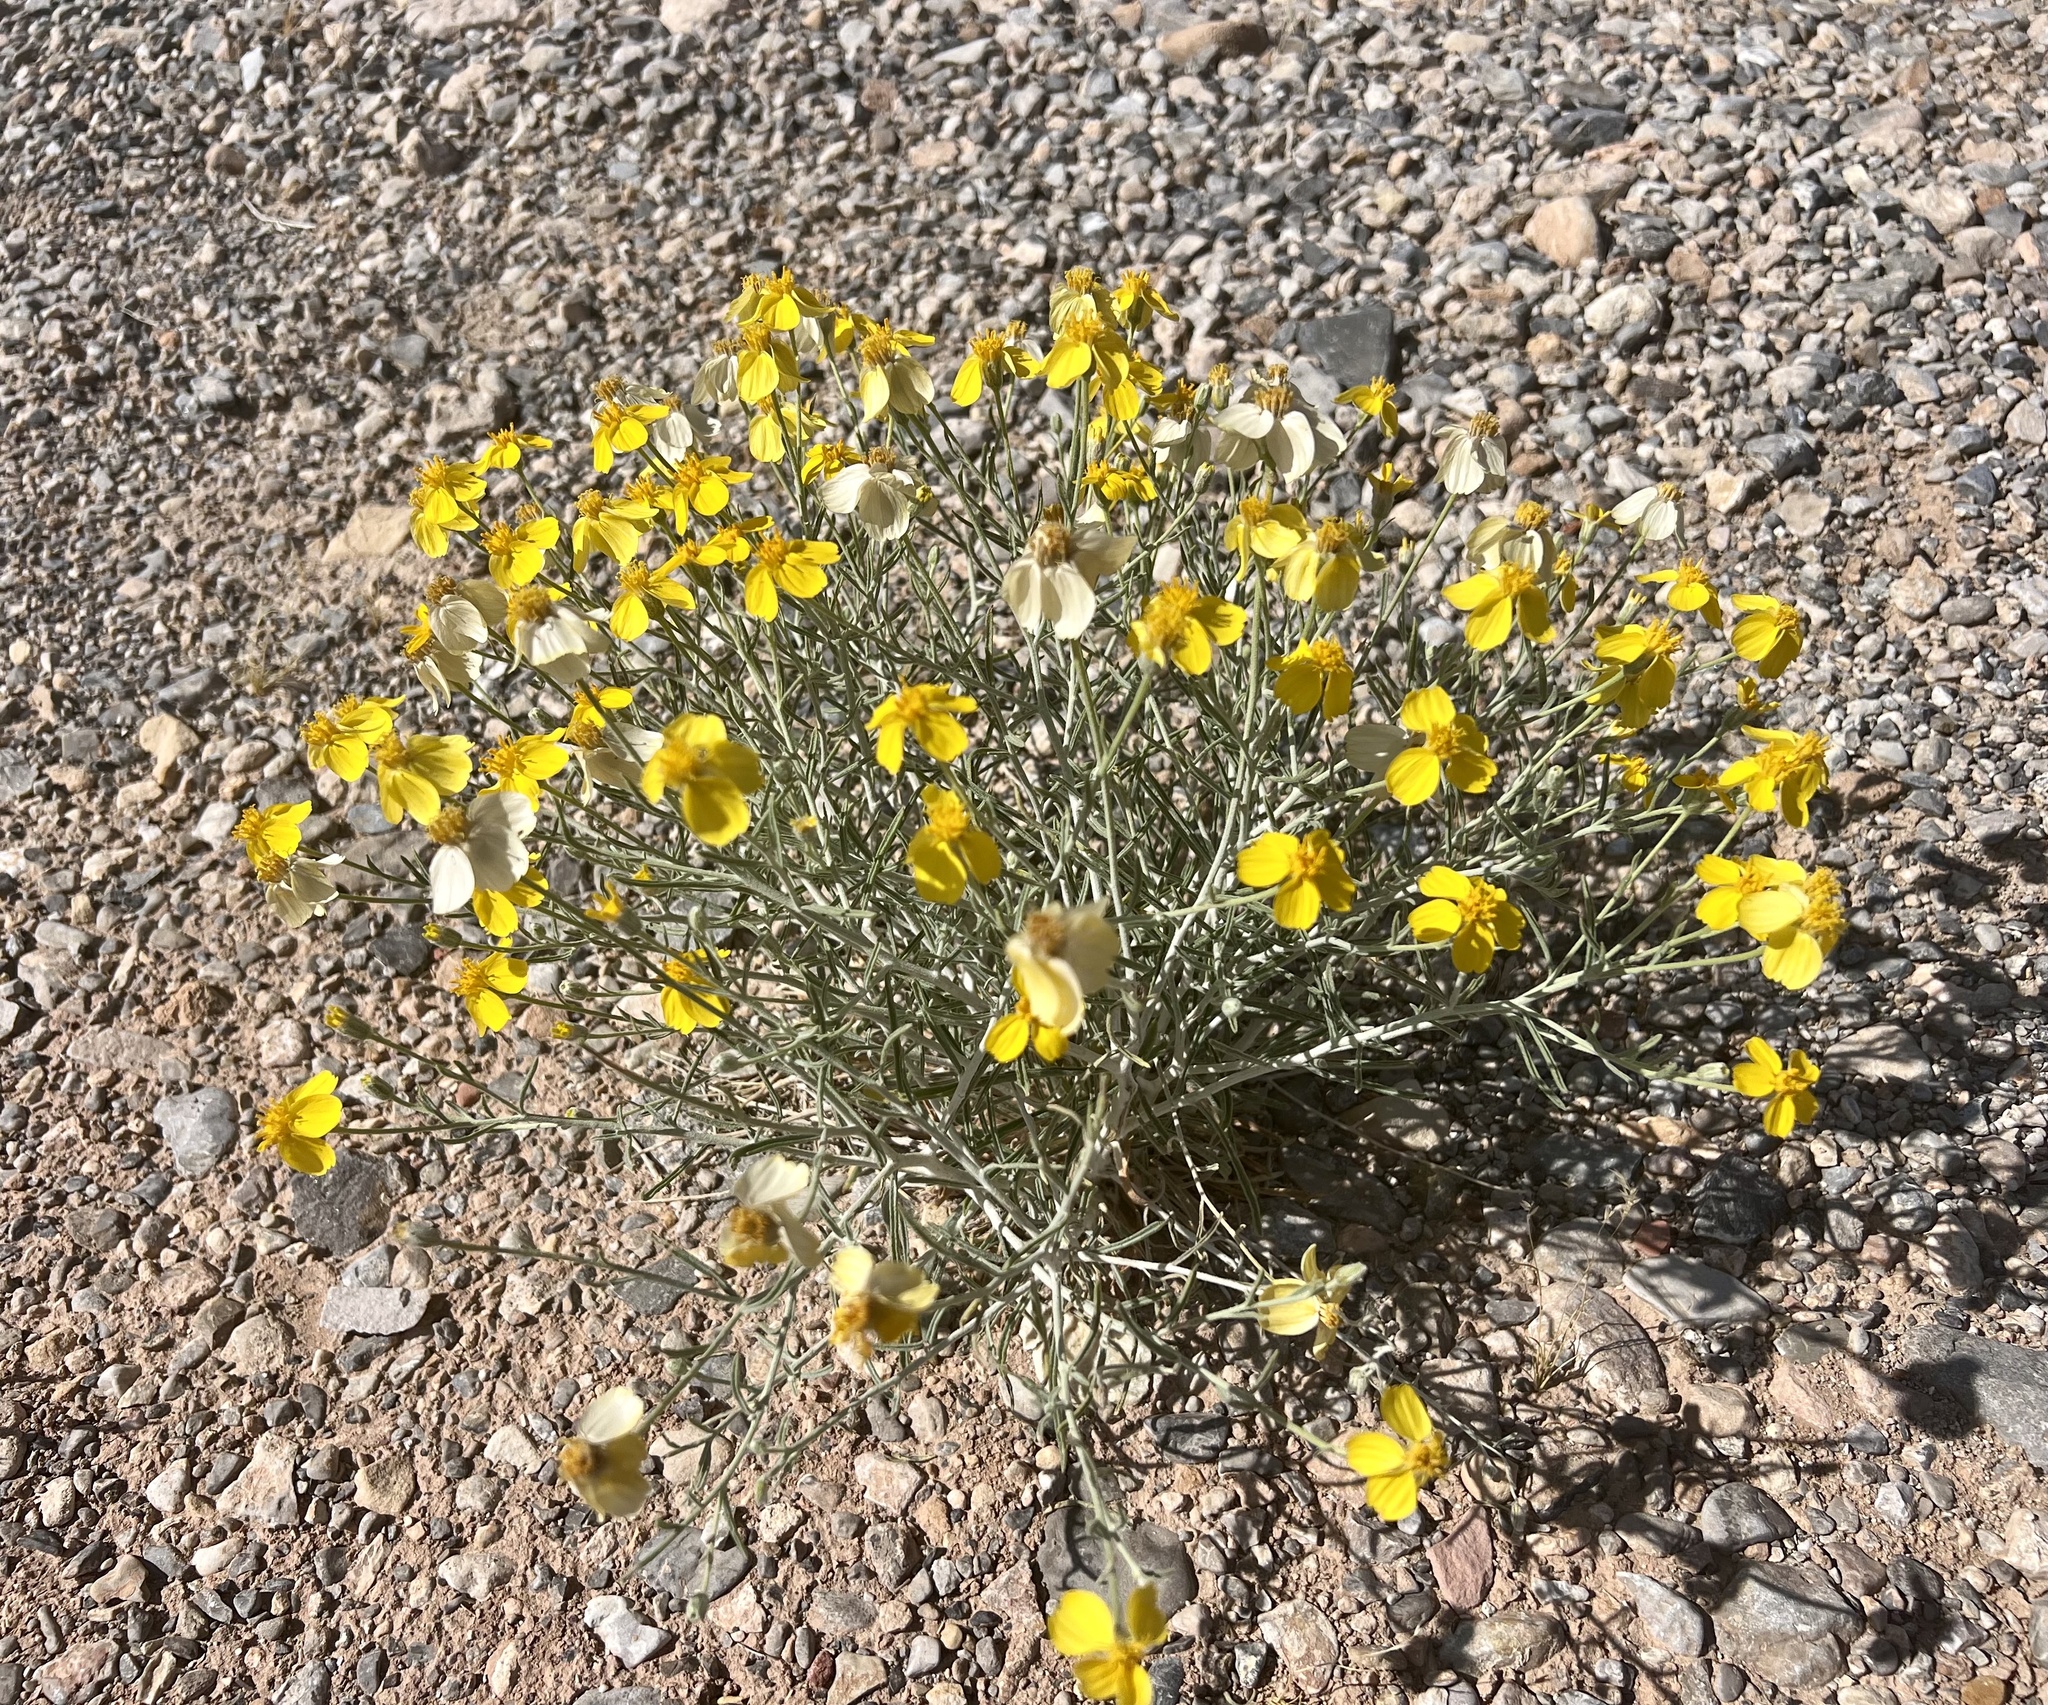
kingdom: Plantae
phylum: Tracheophyta
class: Magnoliopsida
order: Asterales
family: Asteraceae
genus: Psilostrophe
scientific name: Psilostrophe cooperi
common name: White-stem paper-flower
